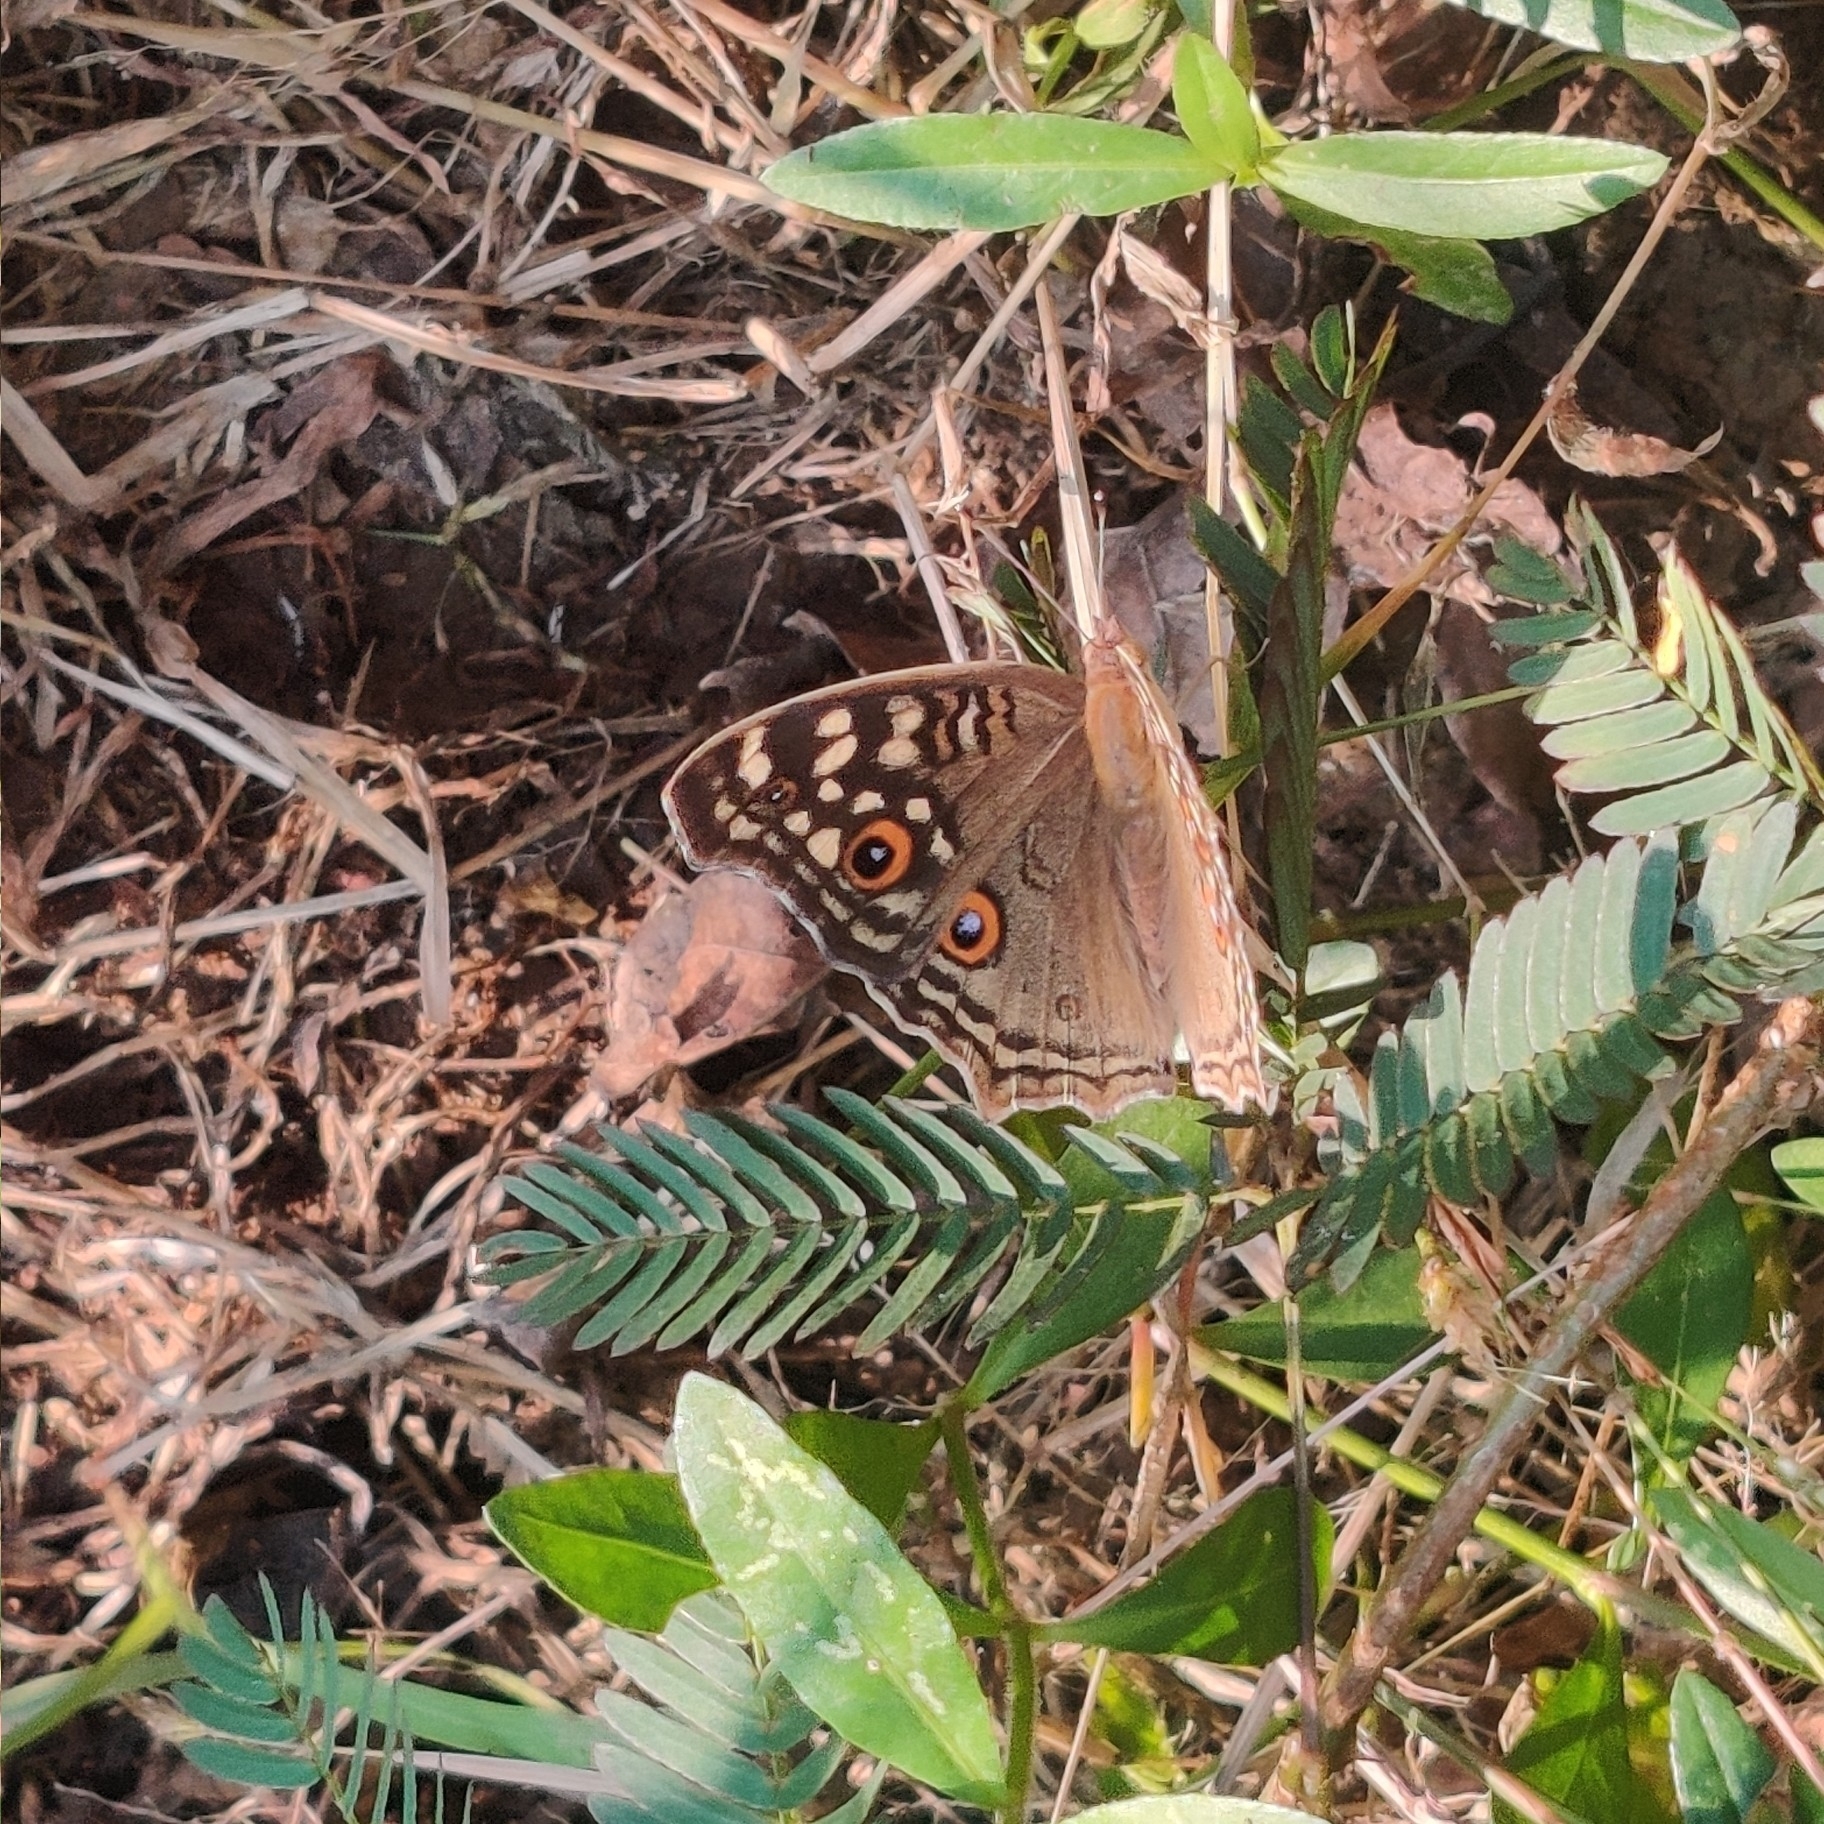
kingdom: Animalia
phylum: Arthropoda
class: Insecta
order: Lepidoptera
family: Nymphalidae
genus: Junonia
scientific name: Junonia lemonias
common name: Lemon pansy
